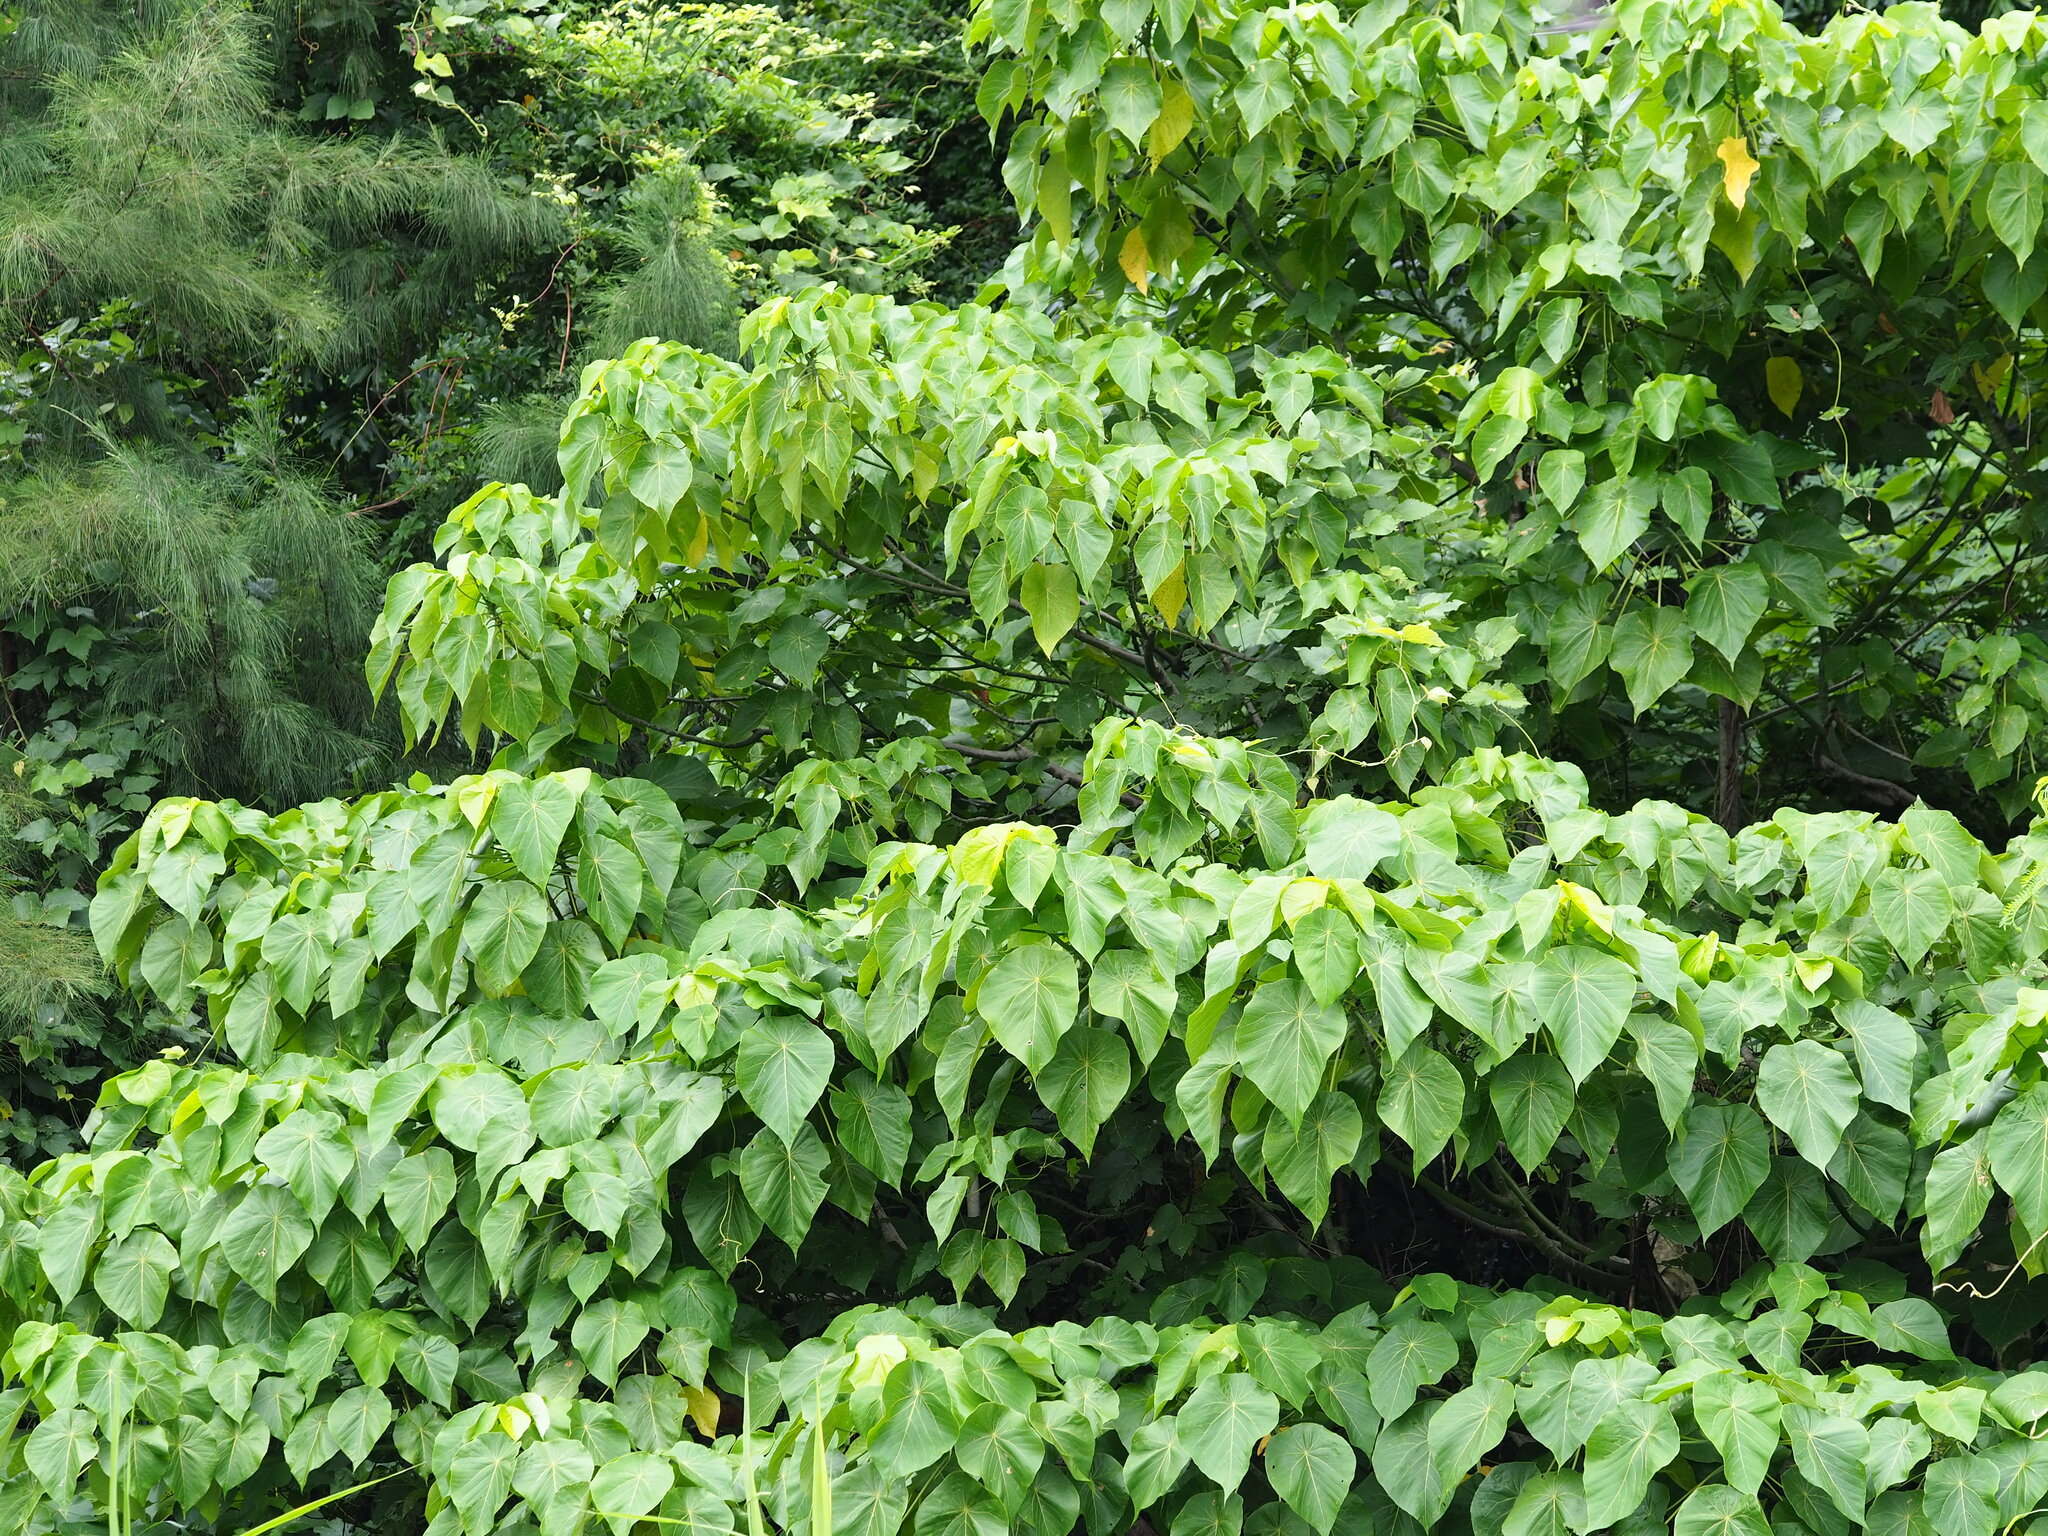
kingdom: Plantae
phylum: Tracheophyta
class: Magnoliopsida
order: Malpighiales
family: Euphorbiaceae
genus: Macaranga
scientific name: Macaranga tanarius
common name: Parasol leaf tree
